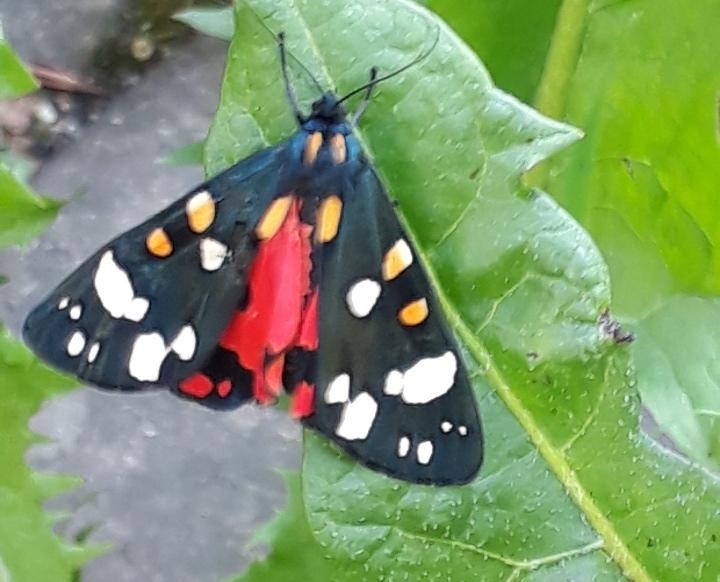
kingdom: Animalia
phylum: Arthropoda
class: Insecta
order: Lepidoptera
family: Erebidae
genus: Callimorpha
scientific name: Callimorpha dominula
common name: Scarlet tiger
